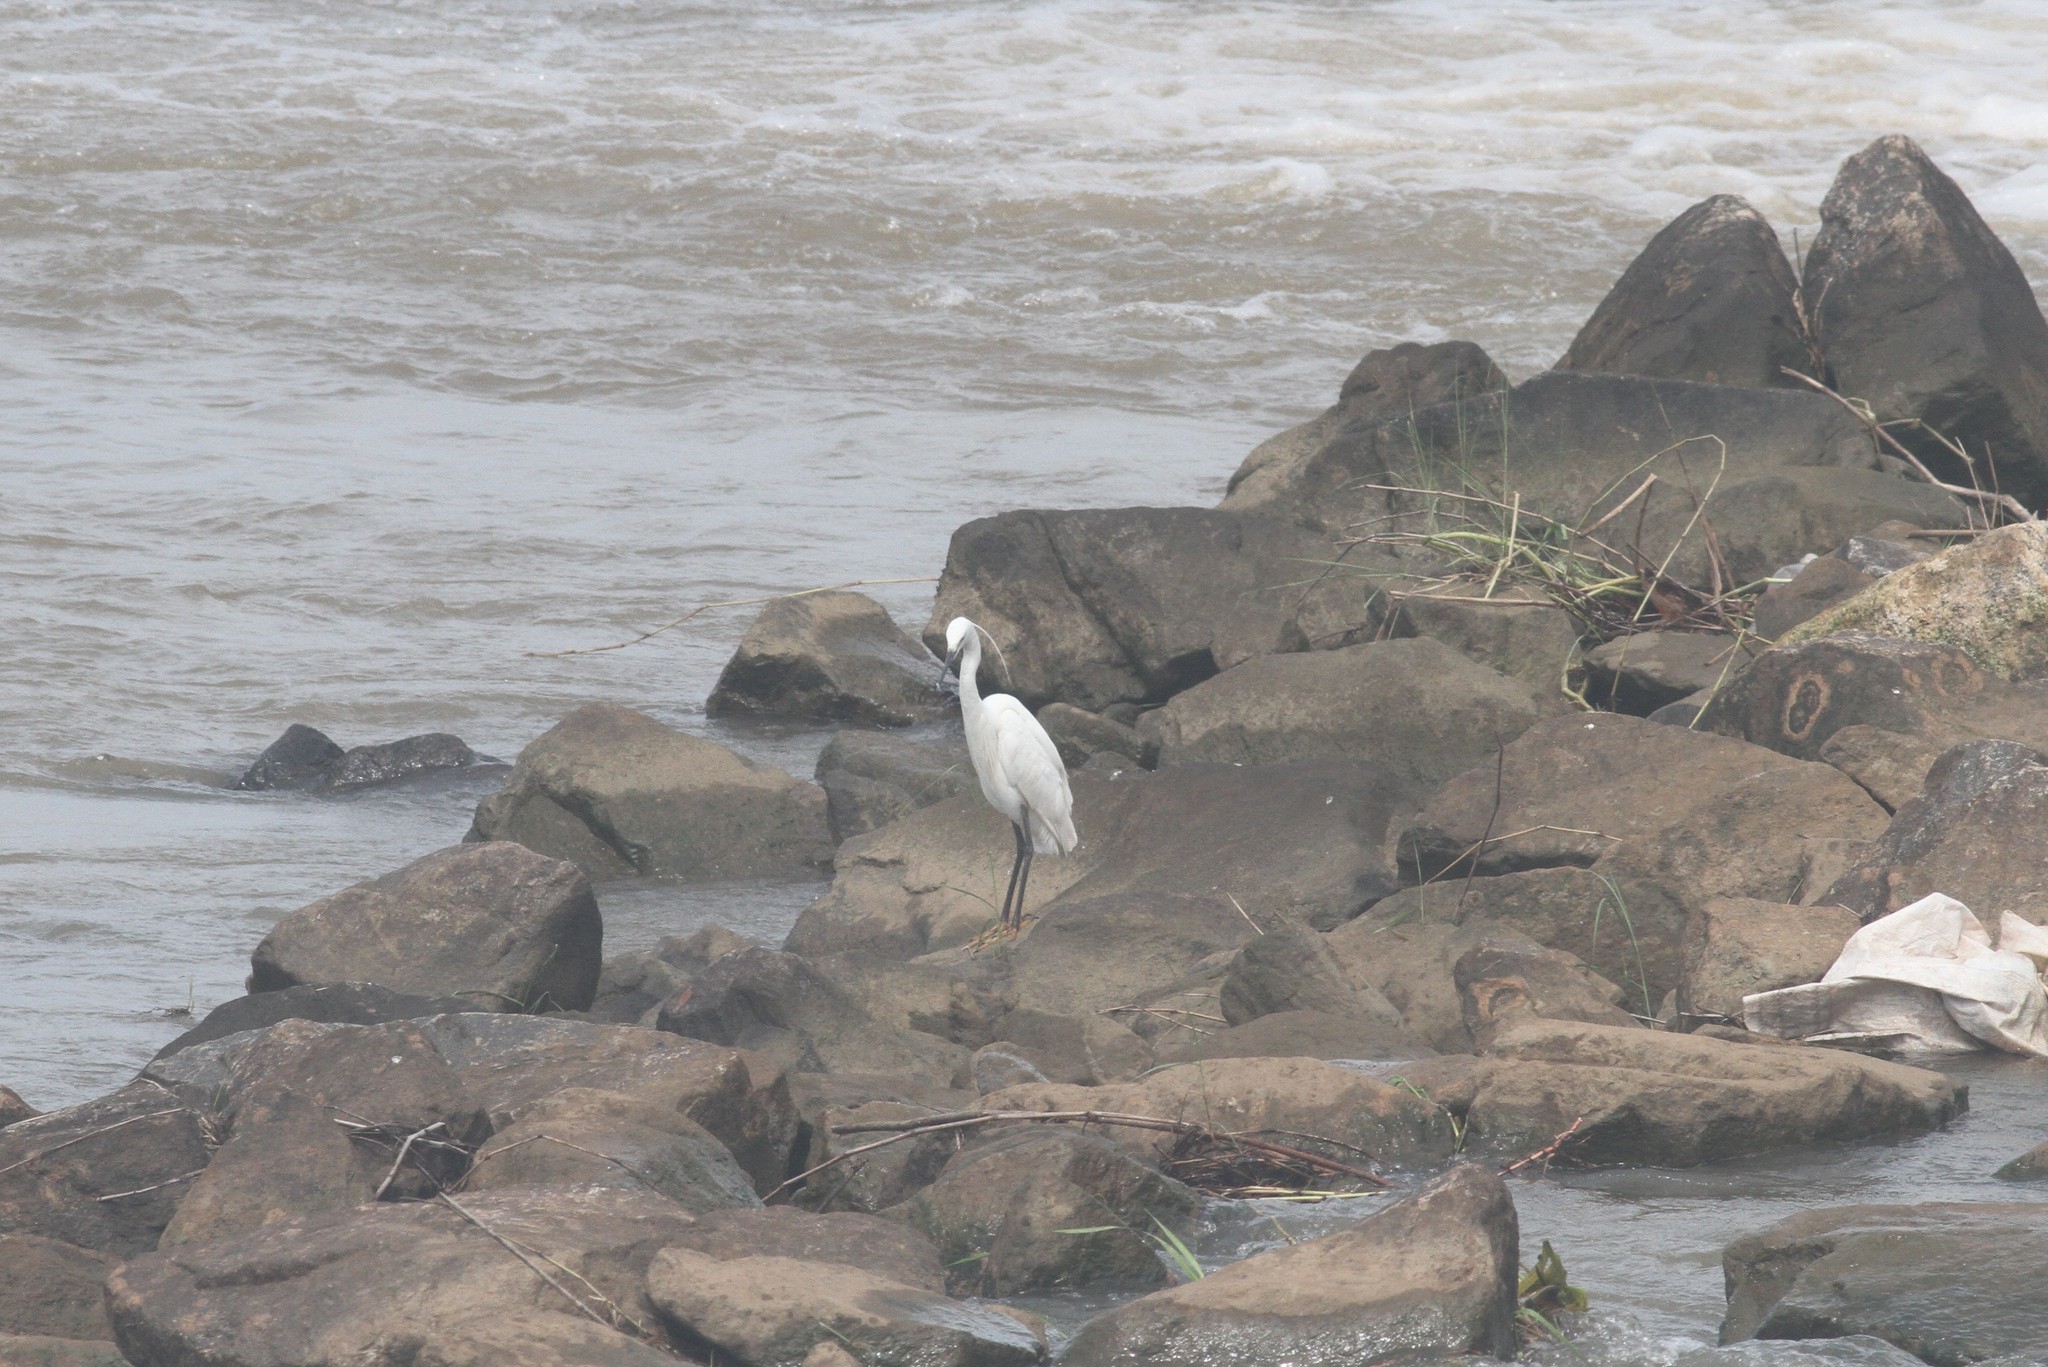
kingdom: Animalia
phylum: Chordata
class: Aves
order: Pelecaniformes
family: Ardeidae
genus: Egretta
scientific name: Egretta garzetta
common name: Little egret
